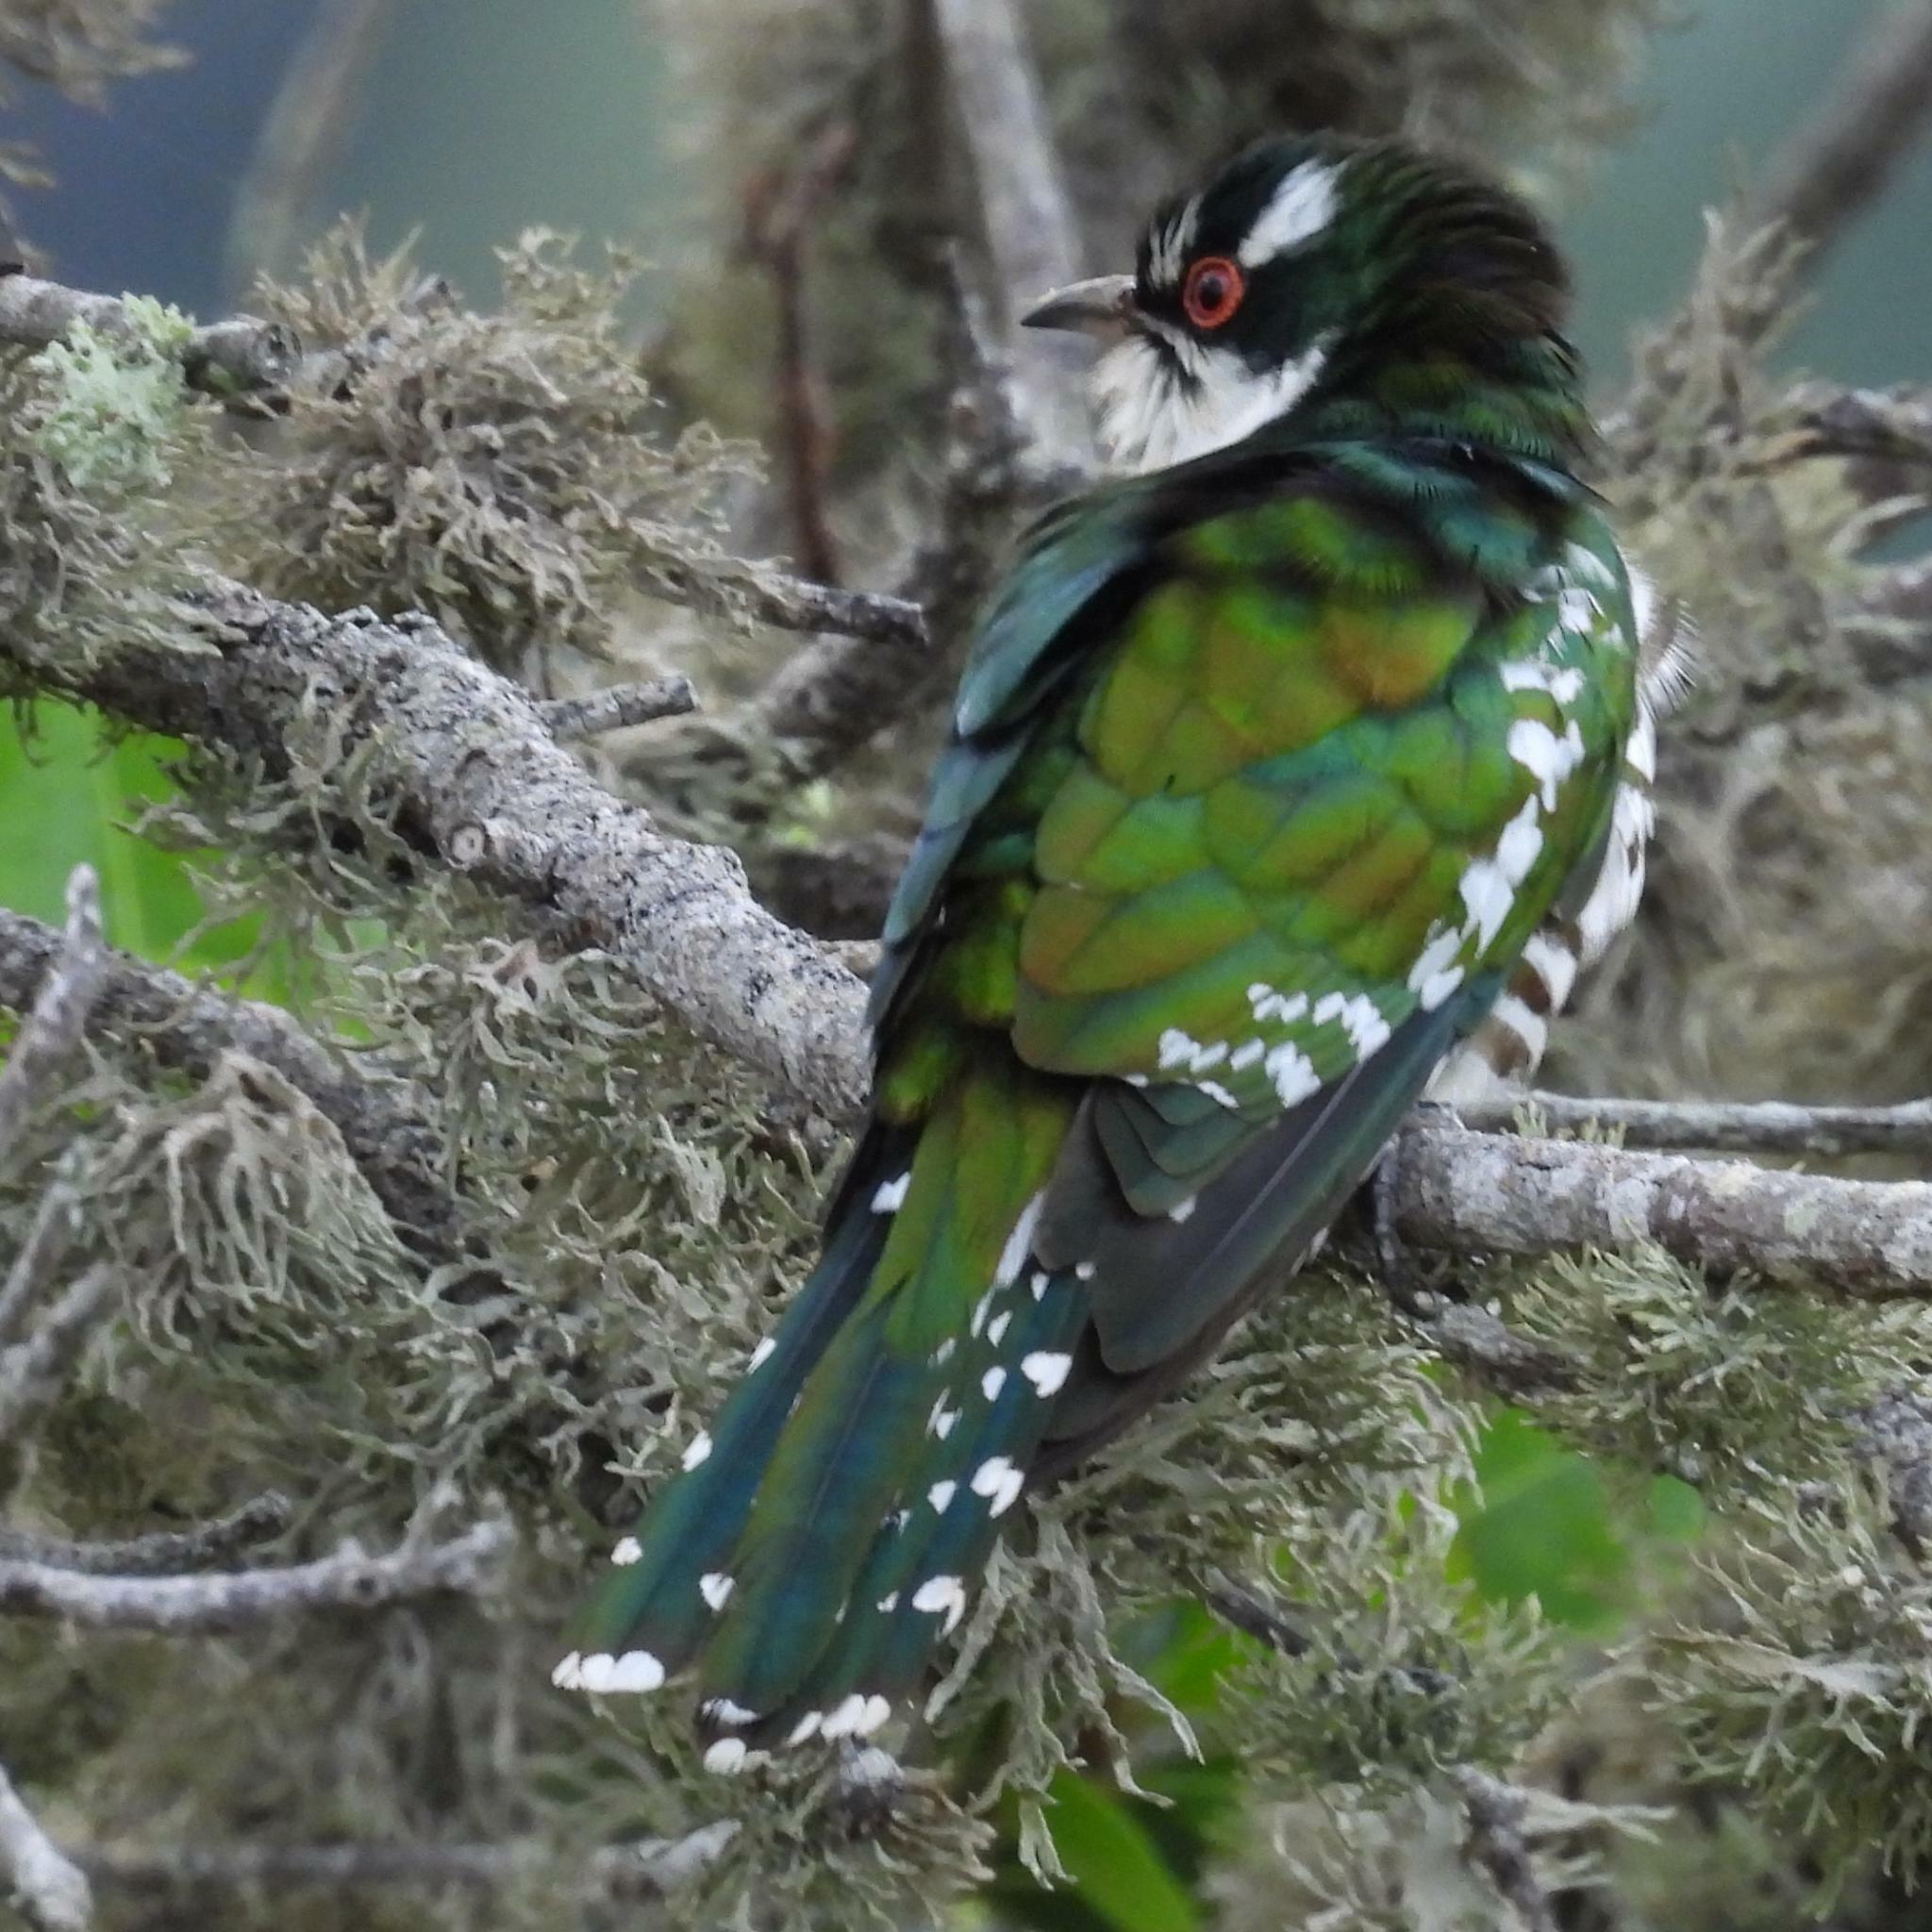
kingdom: Animalia
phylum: Chordata
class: Aves
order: Cuculiformes
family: Cuculidae
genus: Chrysococcyx
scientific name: Chrysococcyx caprius
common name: Diederik cuckoo
